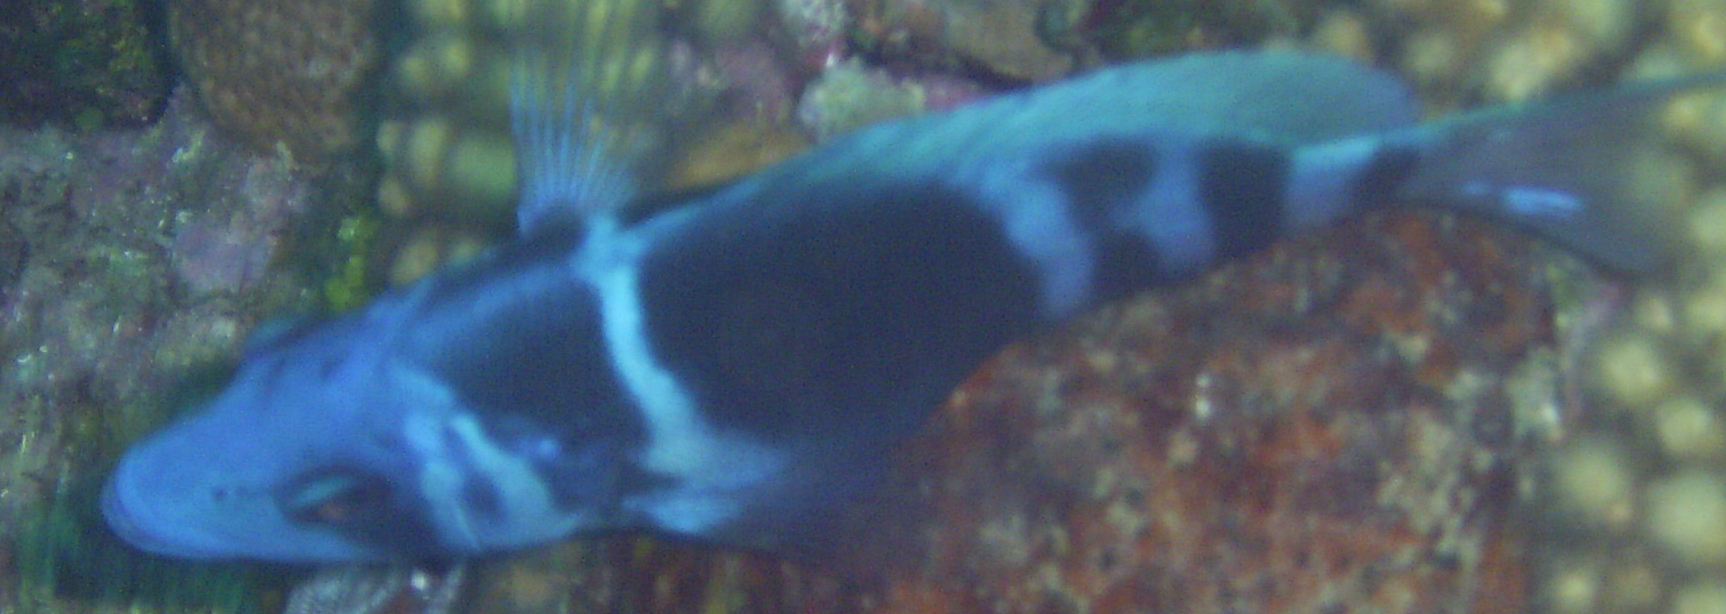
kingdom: Animalia
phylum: Chordata
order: Perciformes
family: Serranidae
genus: Hypoplectrus
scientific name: Hypoplectrus indigo
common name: Indigo hamlet
